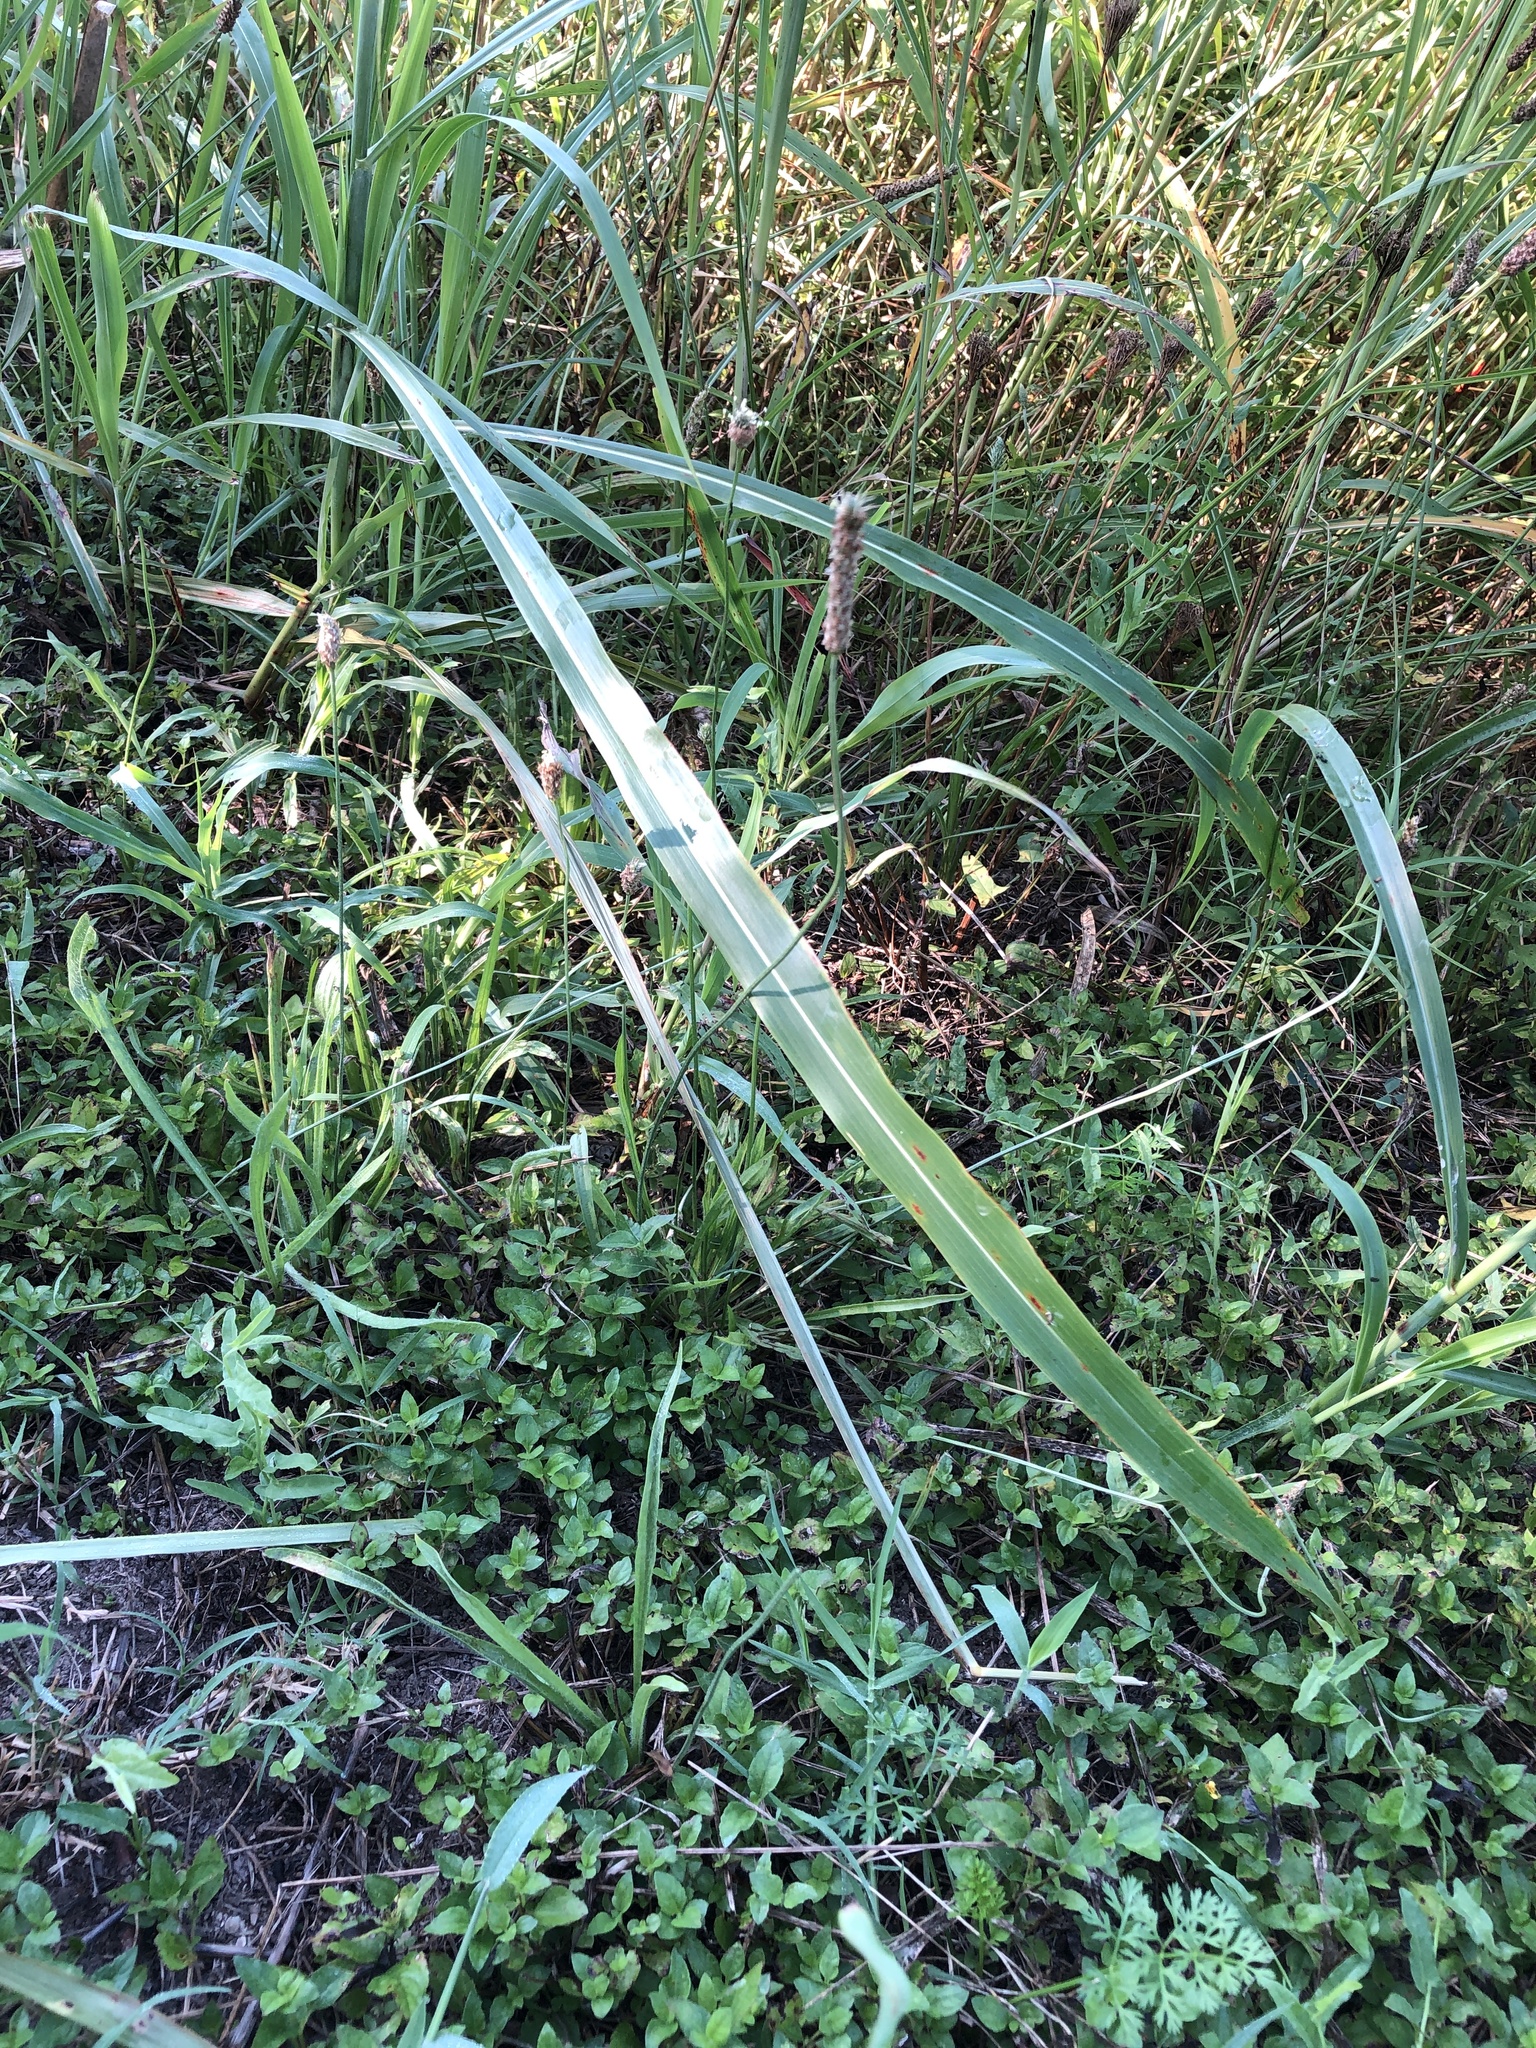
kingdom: Plantae
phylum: Tracheophyta
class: Magnoliopsida
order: Lamiales
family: Plantaginaceae
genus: Plantago
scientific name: Plantago lanceolata
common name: Ribwort plantain
